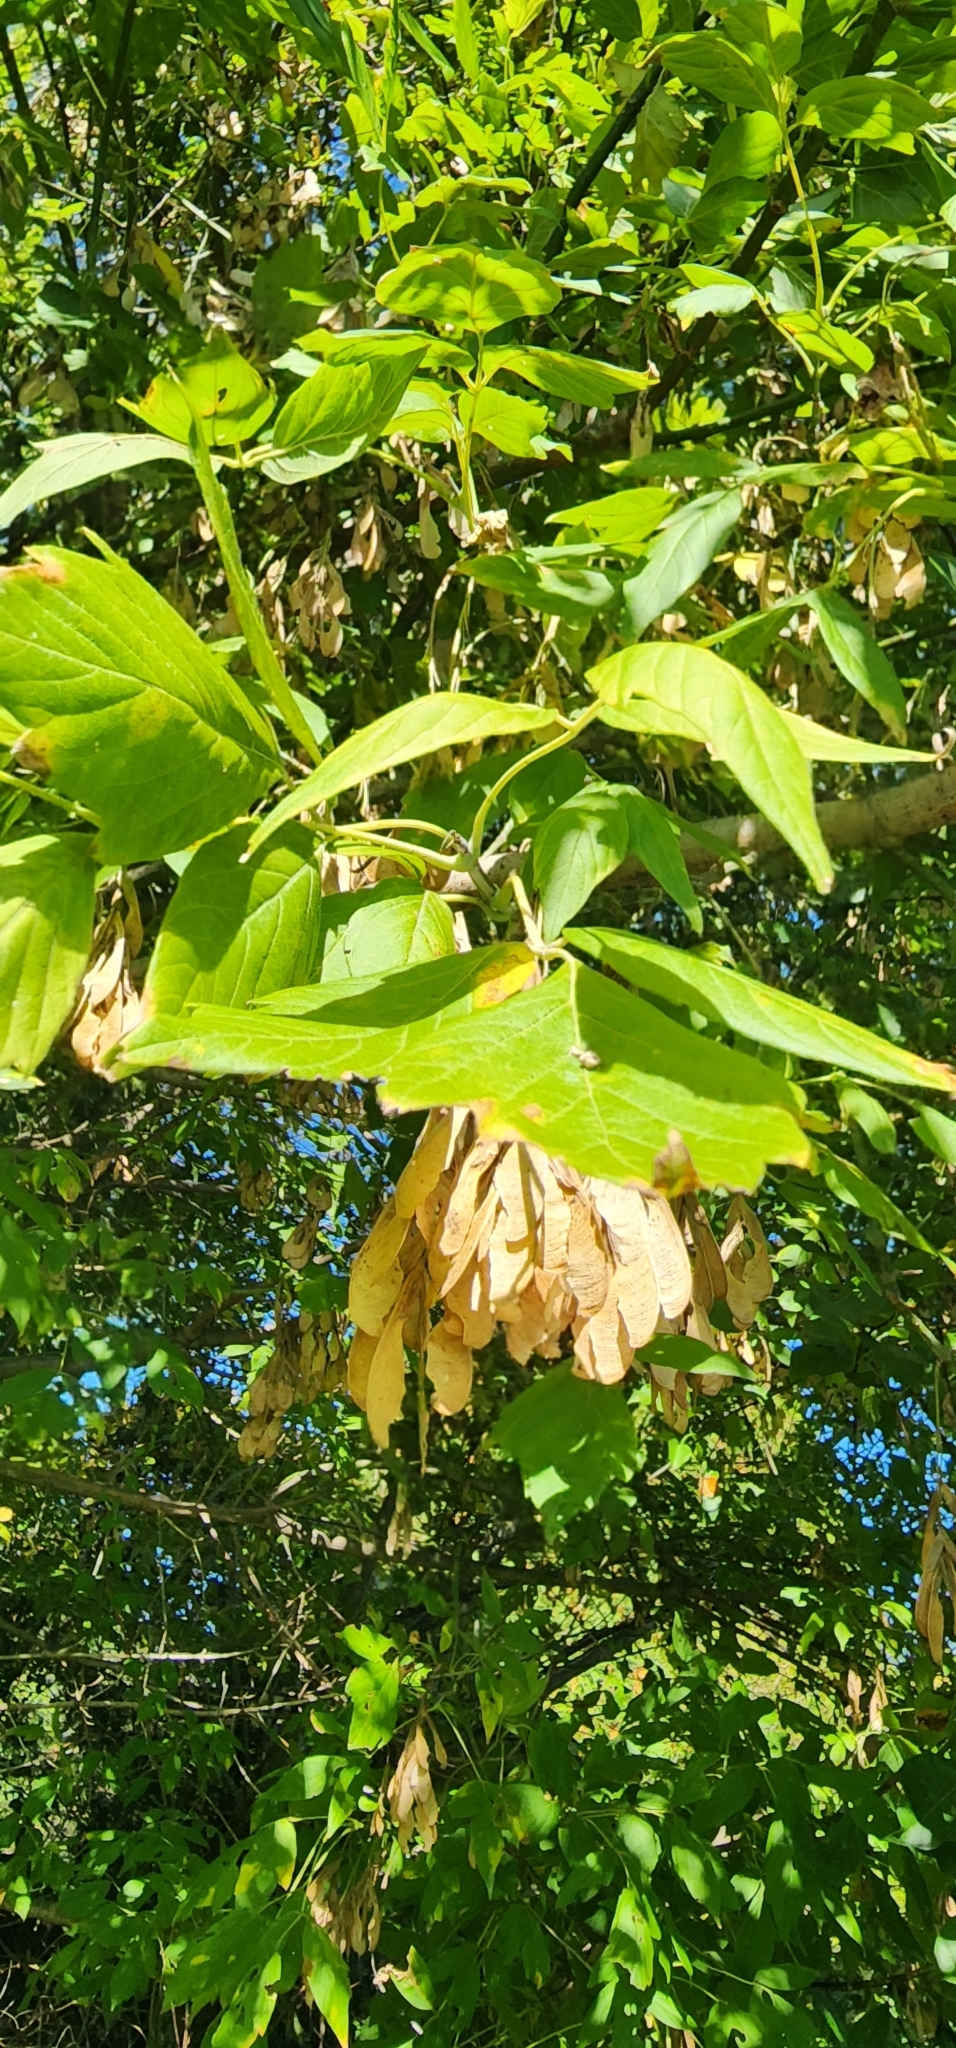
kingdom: Plantae
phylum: Tracheophyta
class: Magnoliopsida
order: Sapindales
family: Sapindaceae
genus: Acer
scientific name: Acer negundo
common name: Ashleaf maple
